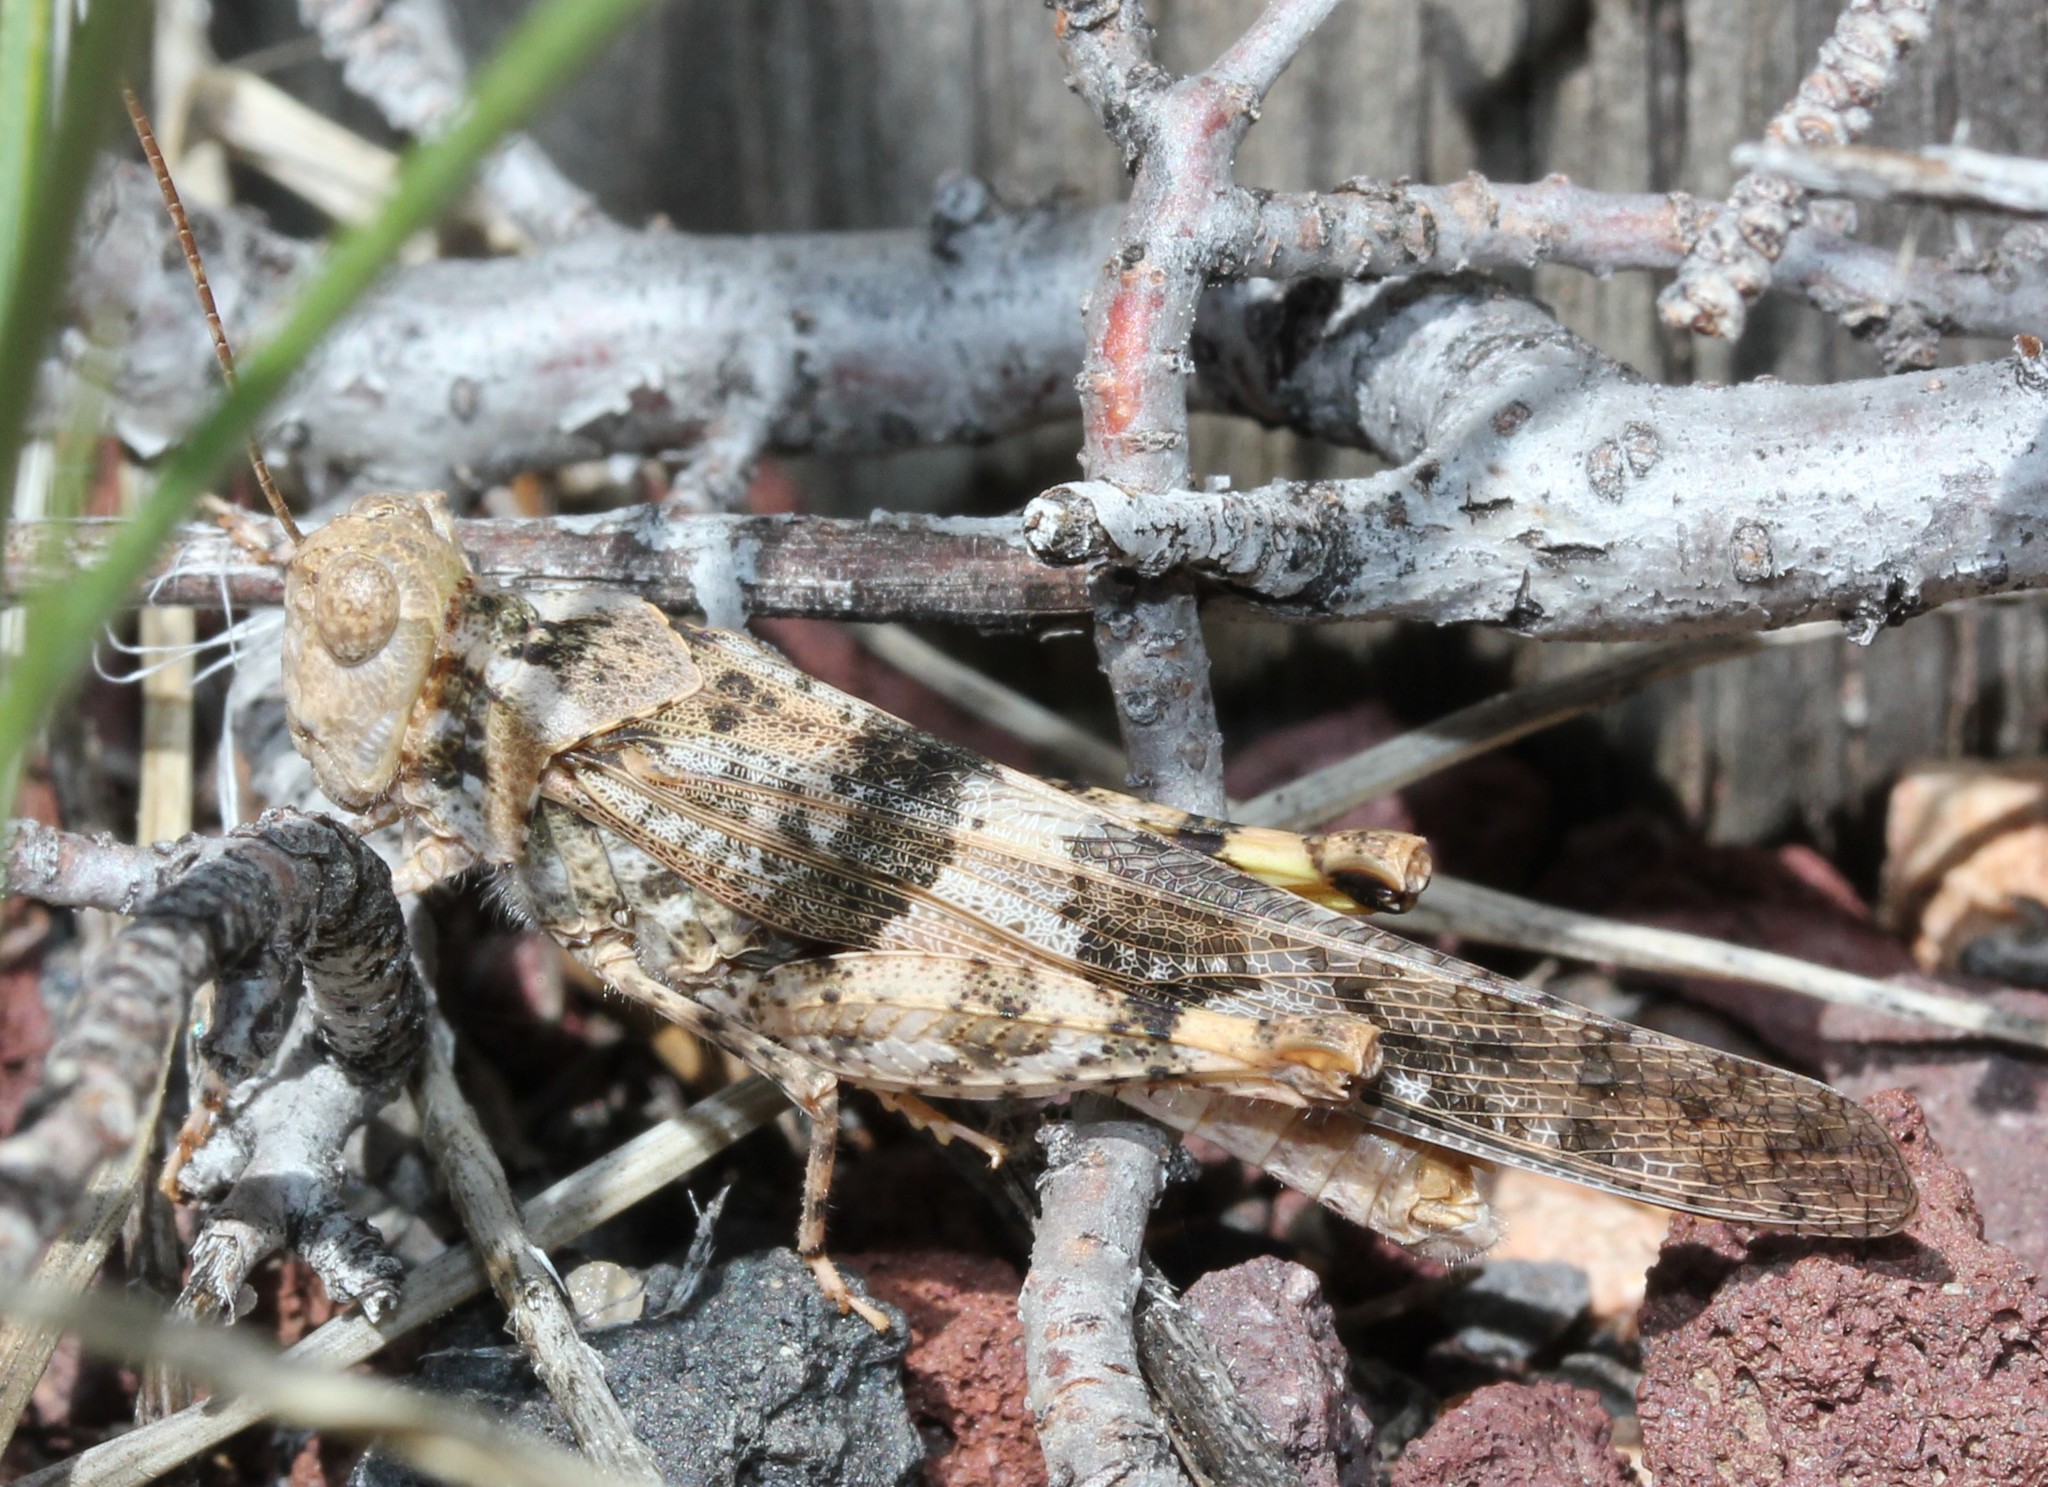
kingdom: Animalia
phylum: Arthropoda
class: Insecta
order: Orthoptera
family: Acrididae
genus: Trimerotropis
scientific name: Trimerotropis pallidipennis
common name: Pallid-winged grasshopper
